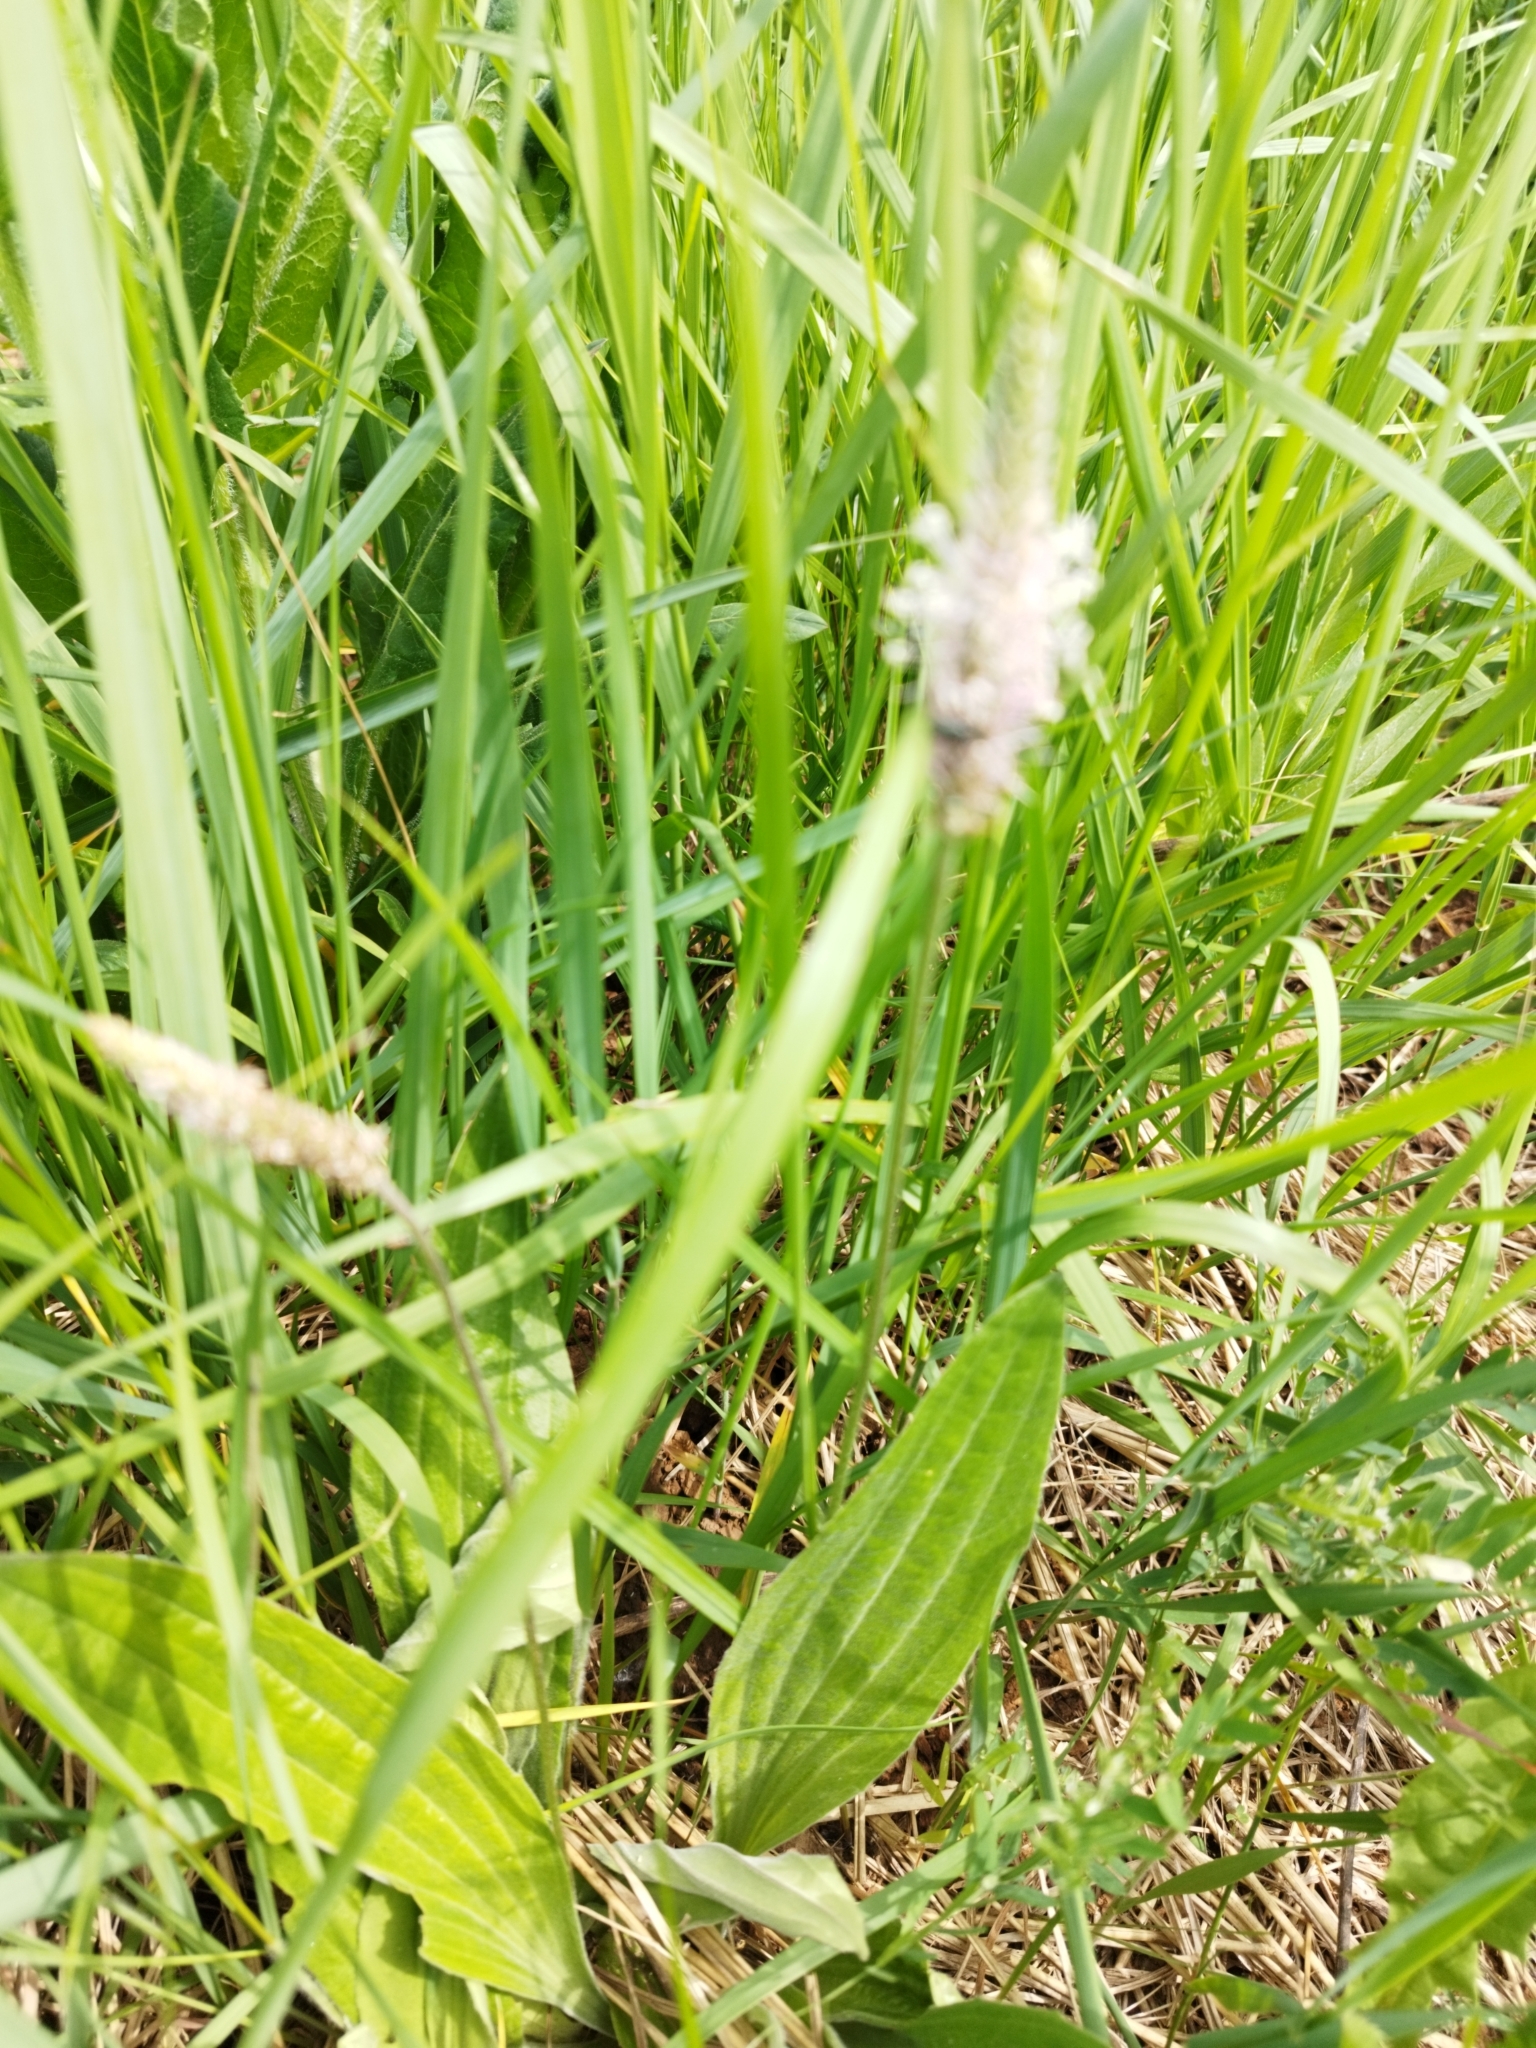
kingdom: Plantae
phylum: Tracheophyta
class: Magnoliopsida
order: Lamiales
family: Plantaginaceae
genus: Plantago
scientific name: Plantago media
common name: Hoary plantain
